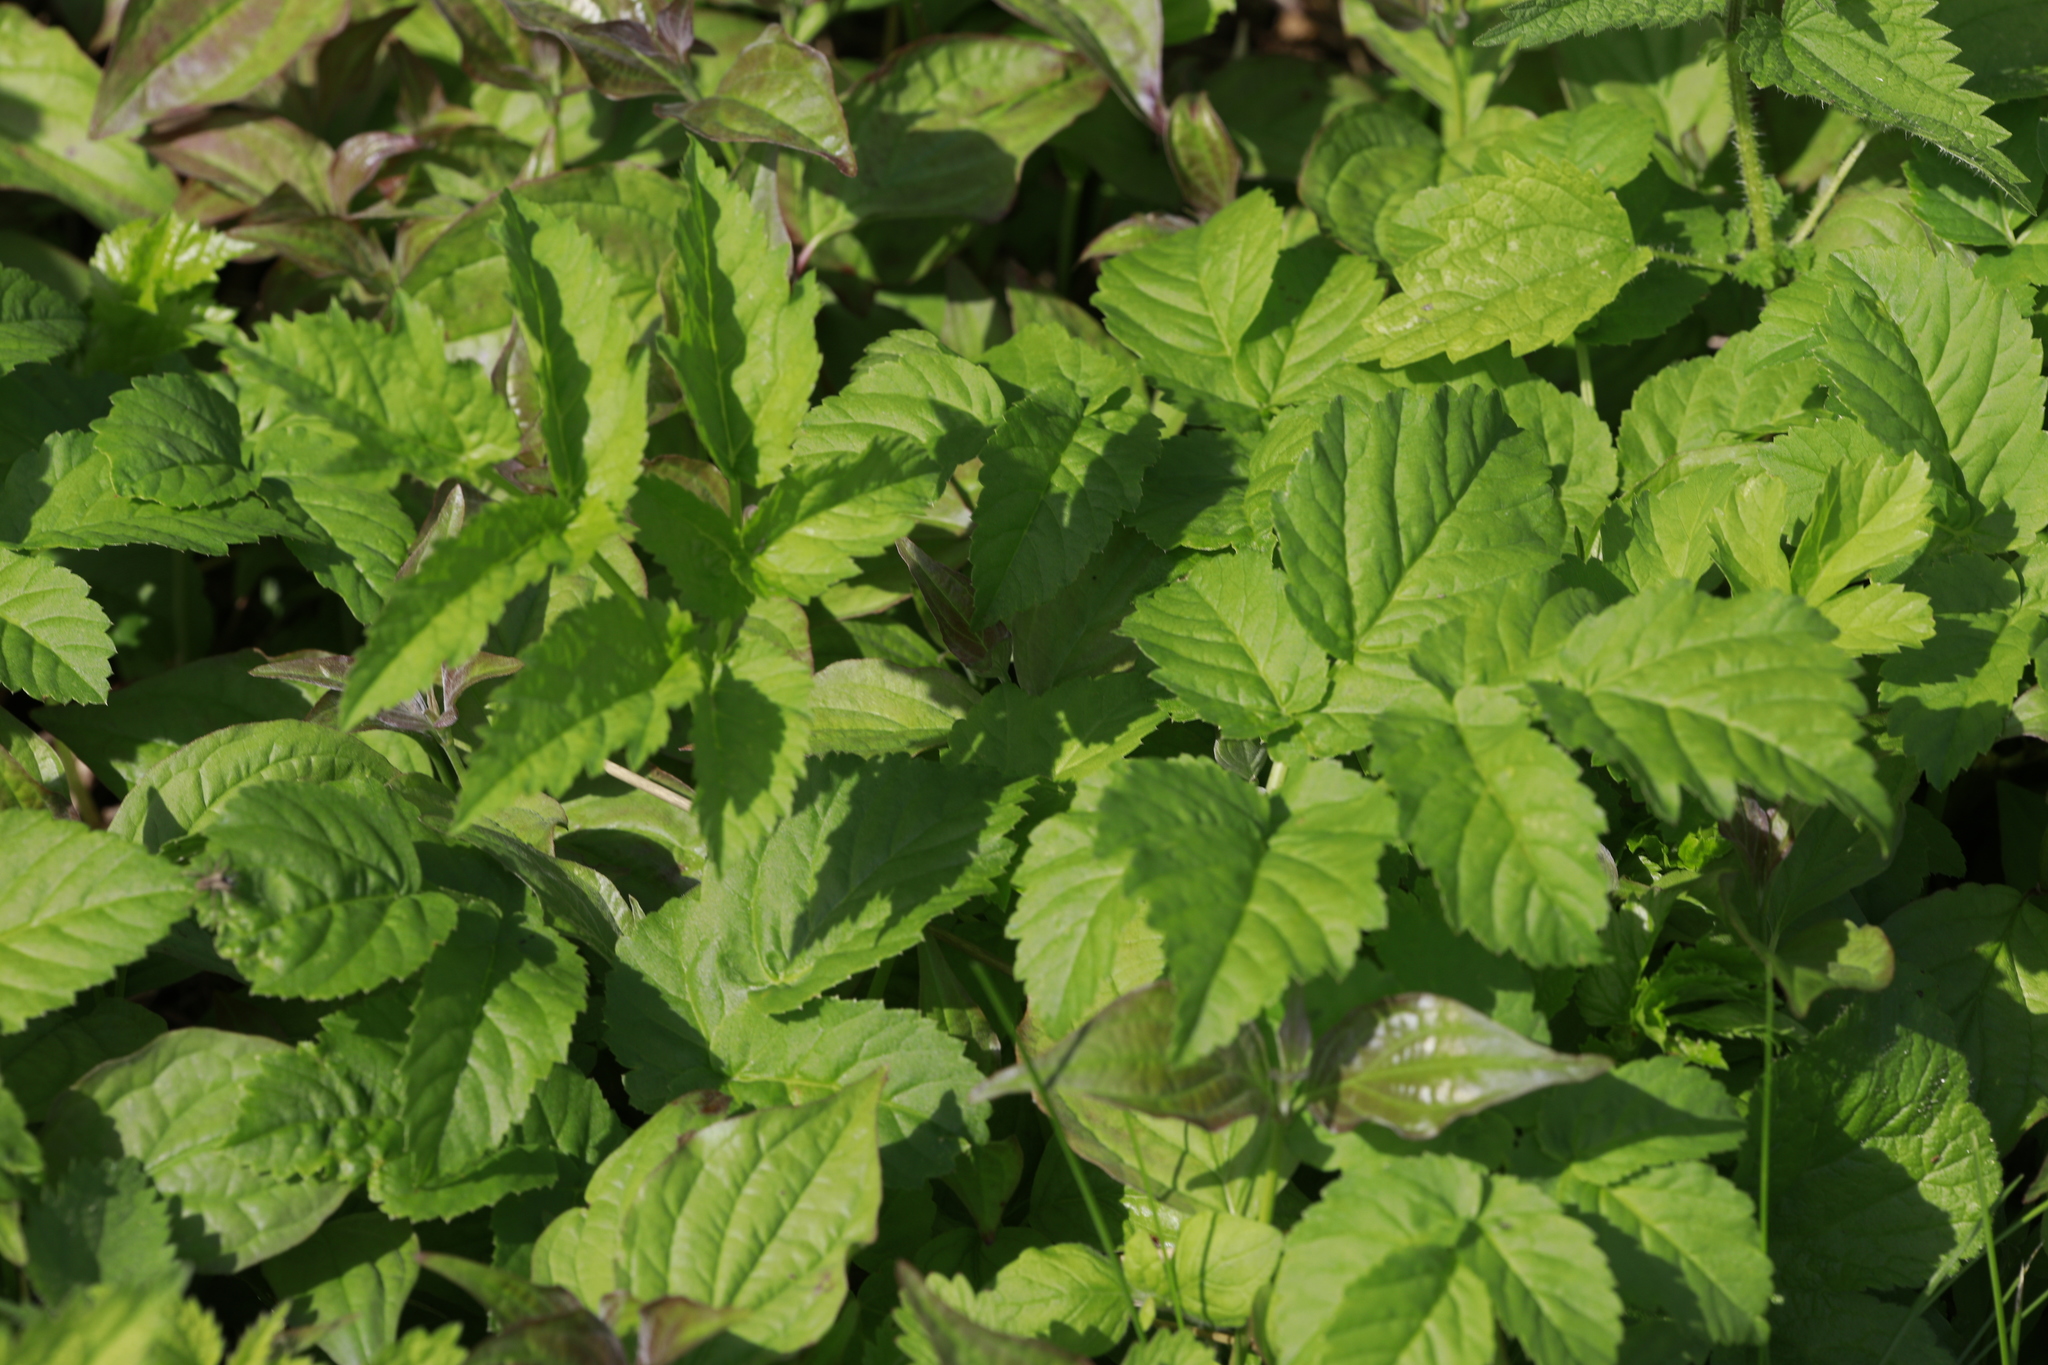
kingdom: Plantae
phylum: Tracheophyta
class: Magnoliopsida
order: Apiales
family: Apiaceae
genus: Aegopodium
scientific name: Aegopodium podagraria
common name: Ground-elder
